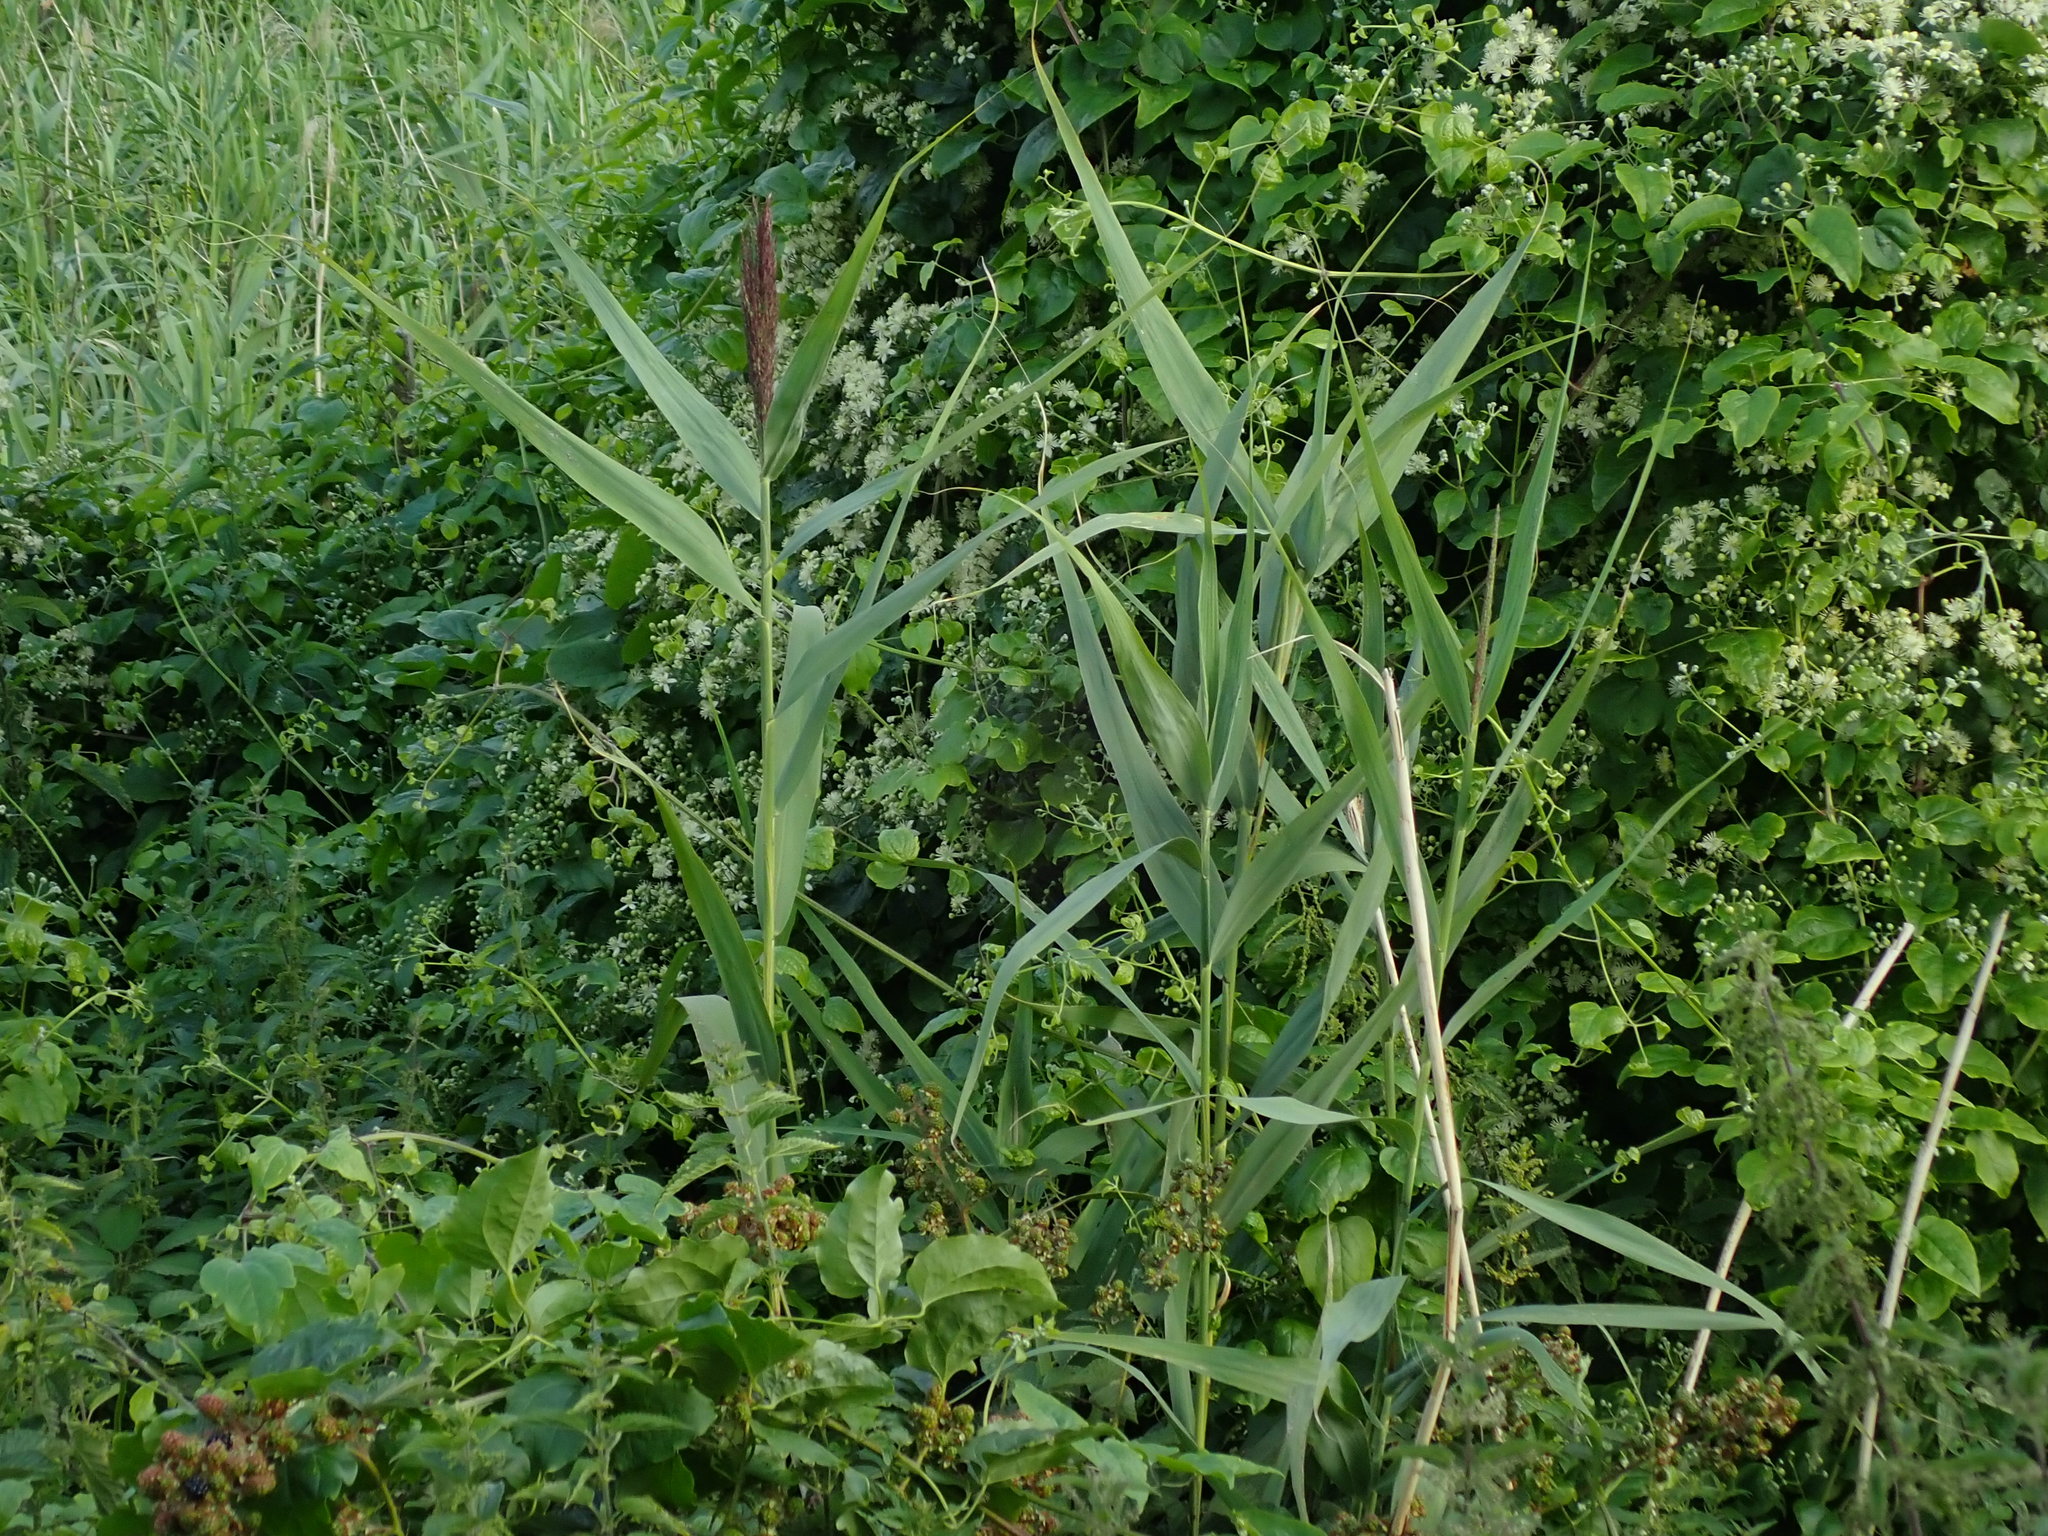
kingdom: Plantae
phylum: Tracheophyta
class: Liliopsida
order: Poales
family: Poaceae
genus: Phragmites
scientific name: Phragmites australis
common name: Common reed
